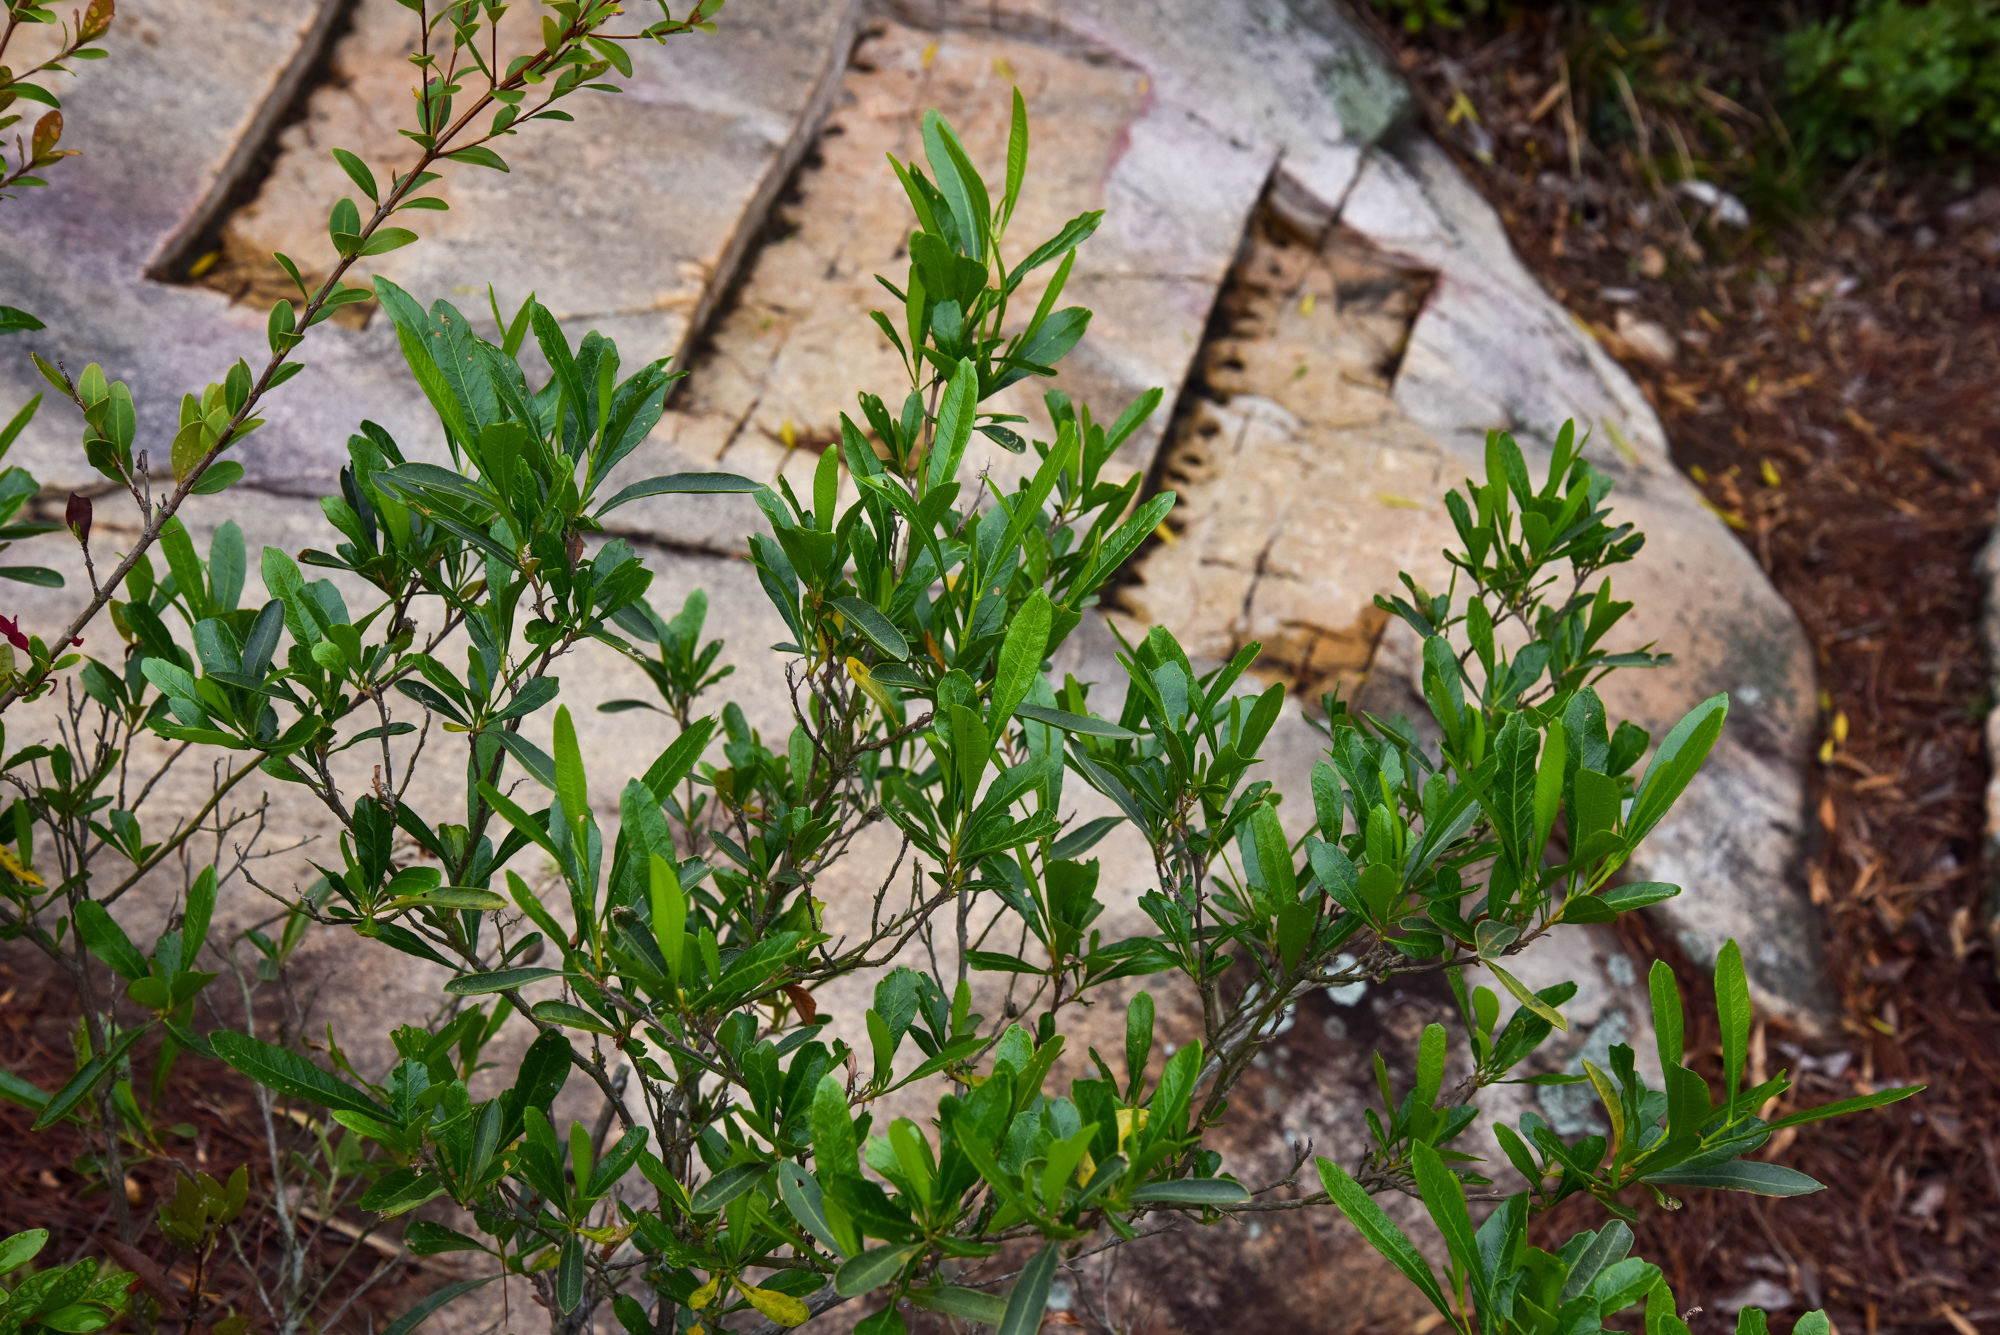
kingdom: Plantae
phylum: Tracheophyta
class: Magnoliopsida
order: Sapindales
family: Sapindaceae
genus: Dodonaea
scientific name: Dodonaea viscosa
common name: Hopbush
